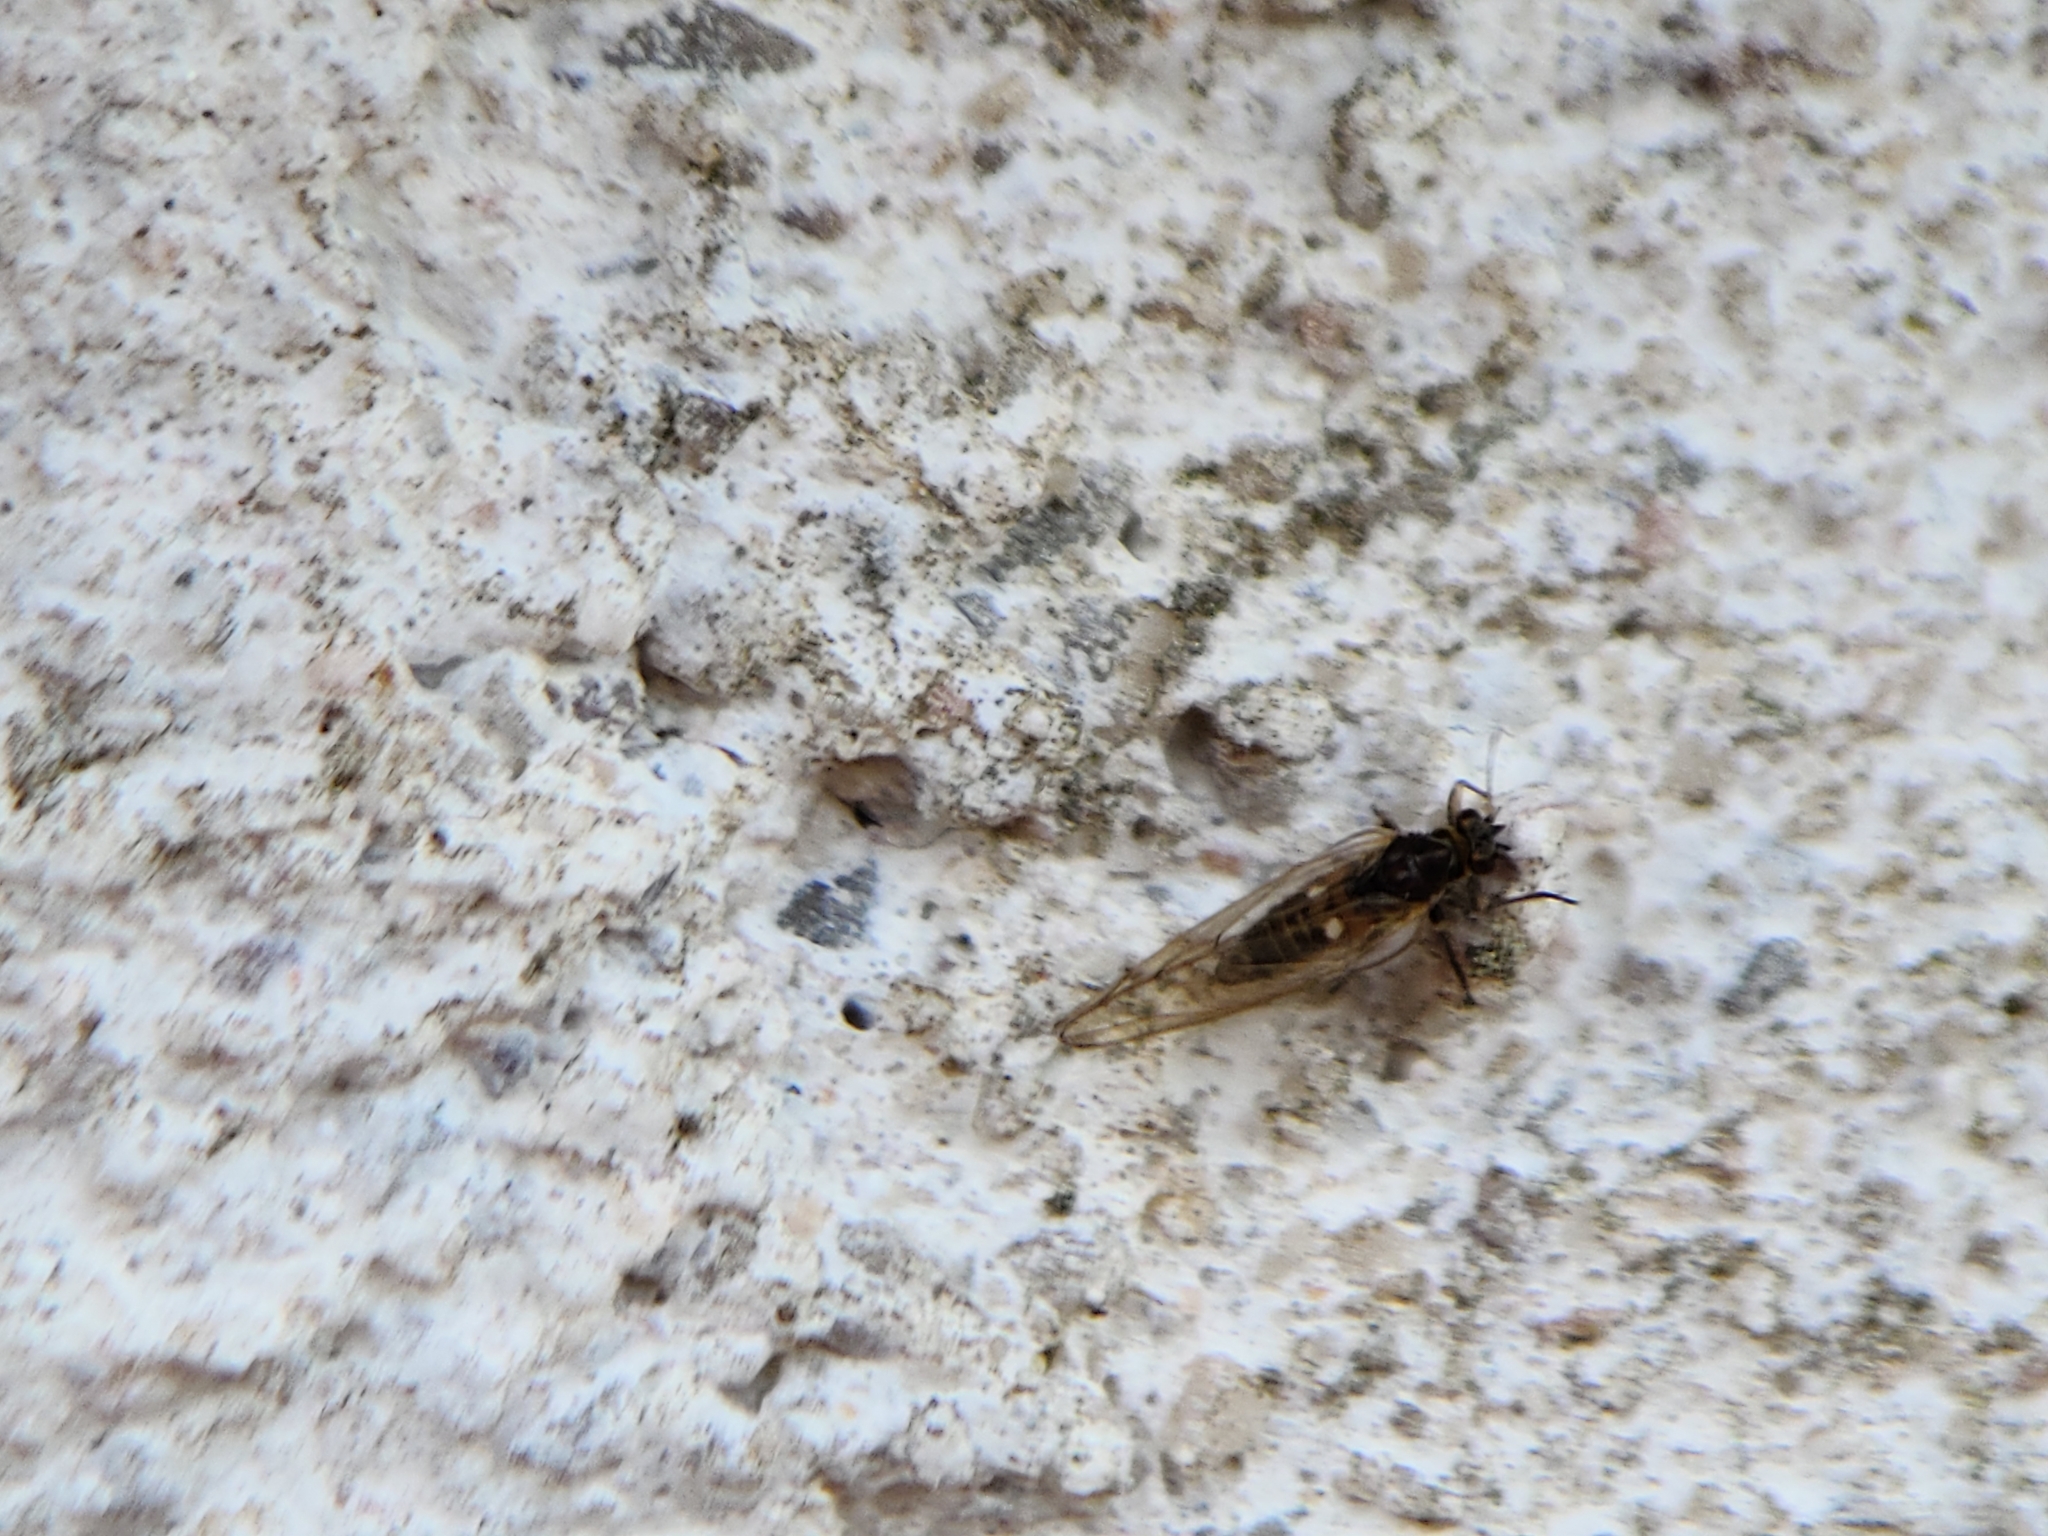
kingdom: Animalia
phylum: Arthropoda
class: Insecta
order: Hemiptera
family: Triozidae
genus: Trioza
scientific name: Trioza urticae
